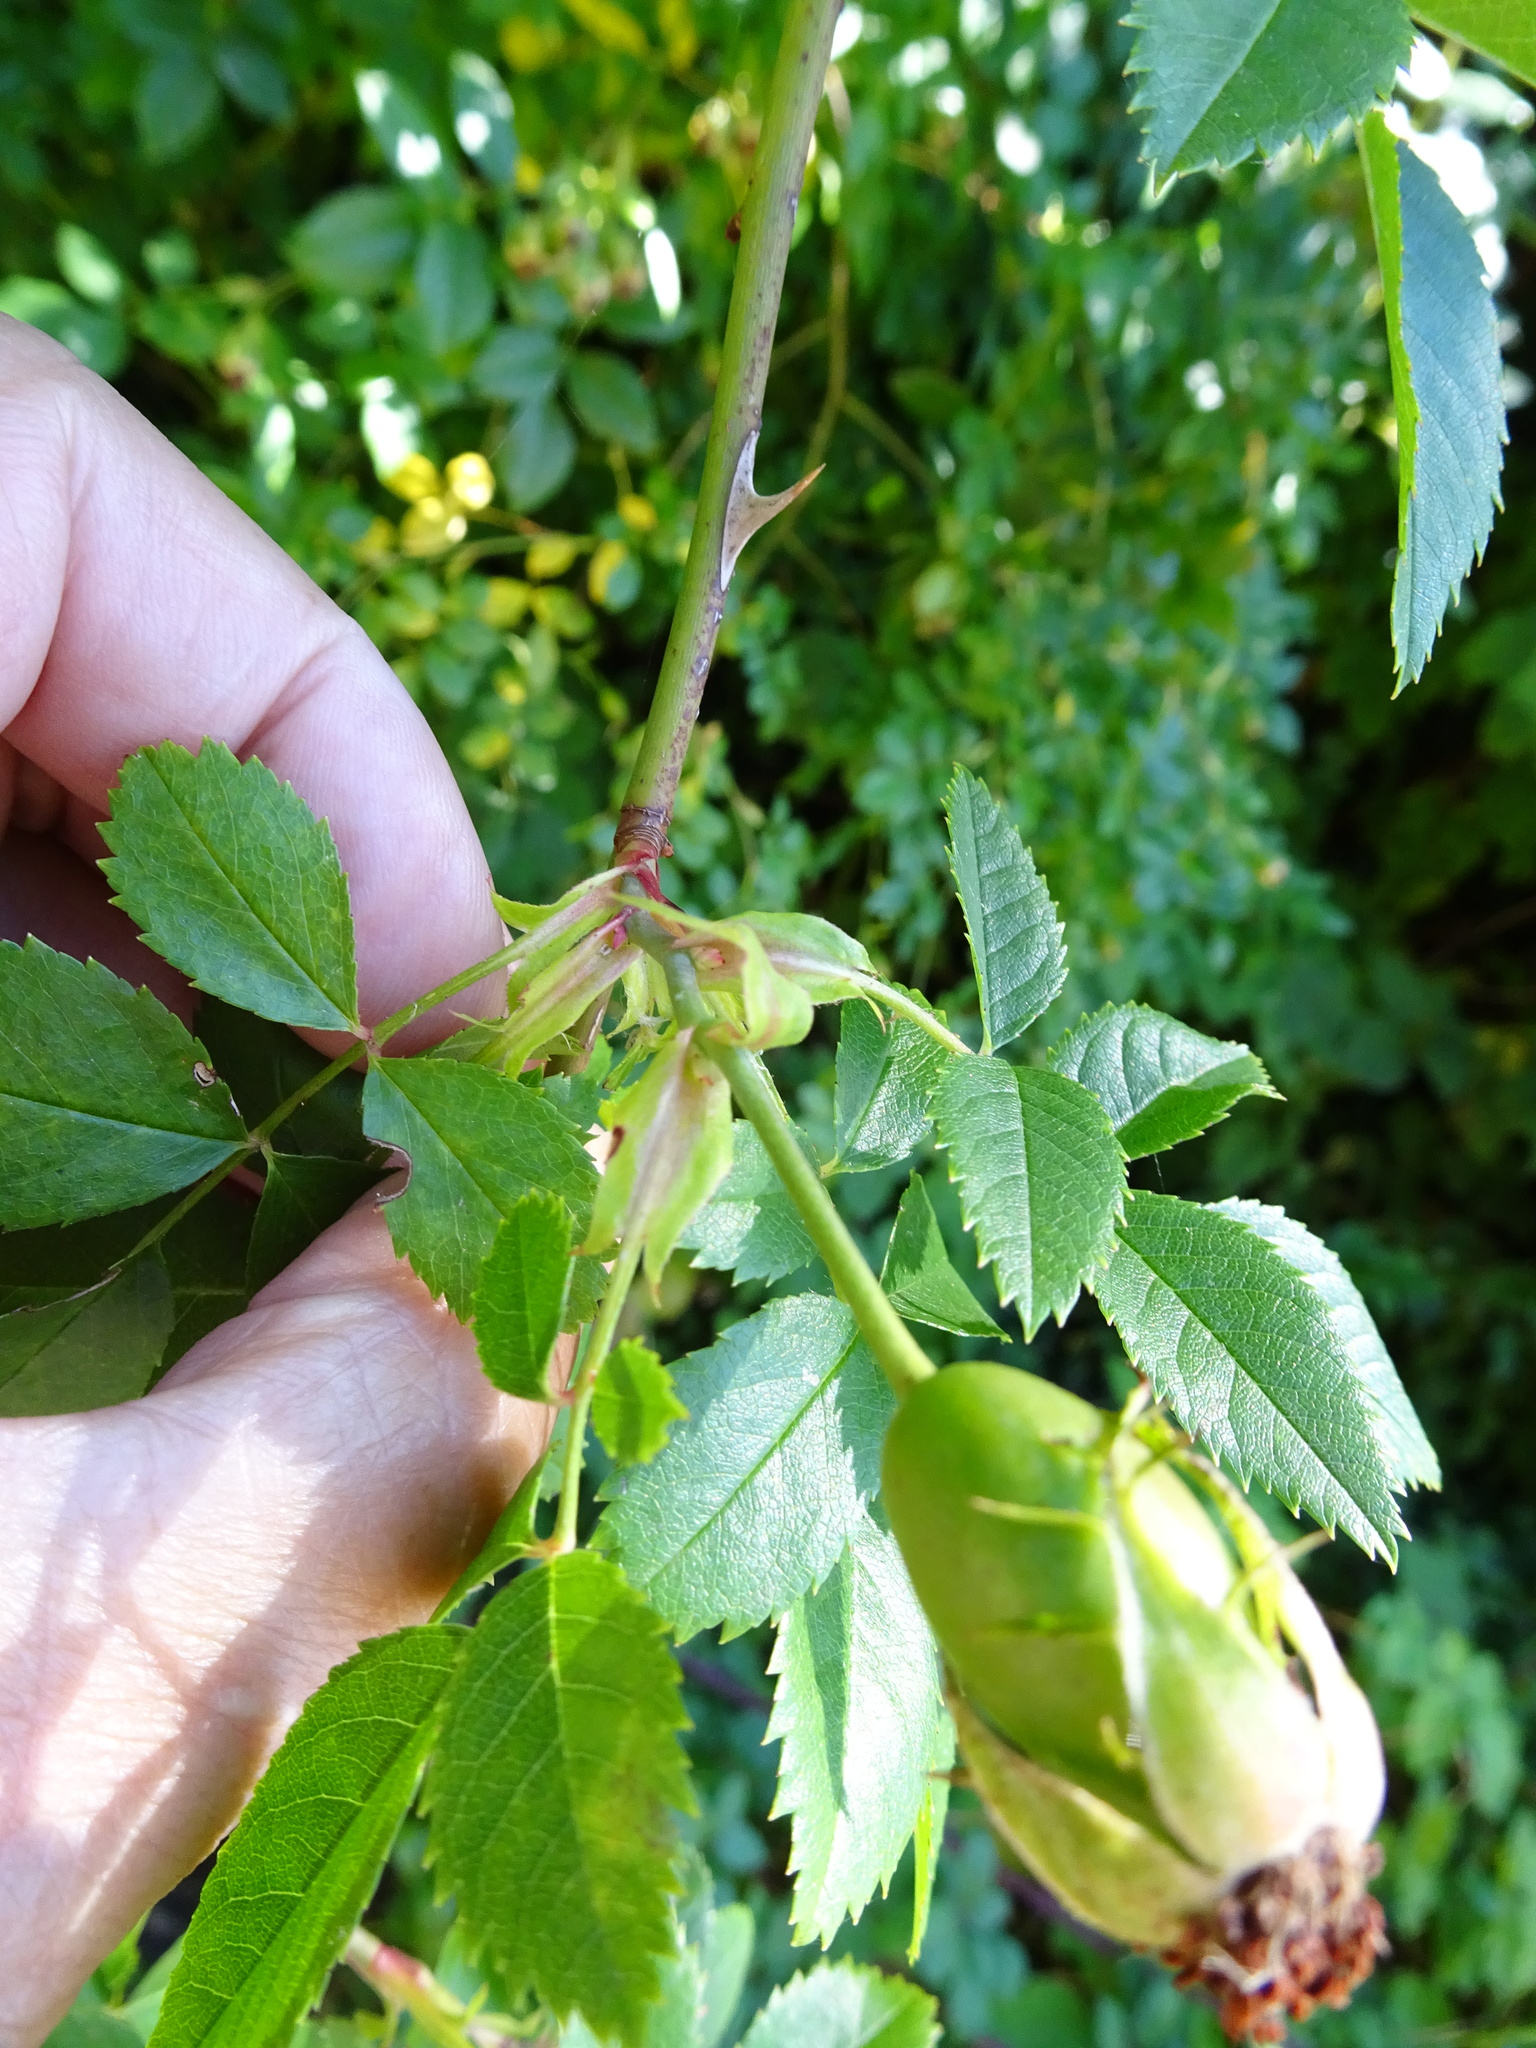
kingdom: Plantae
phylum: Tracheophyta
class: Magnoliopsida
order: Rosales
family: Rosaceae
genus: Rosa
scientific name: Rosa canina
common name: Dog rose
